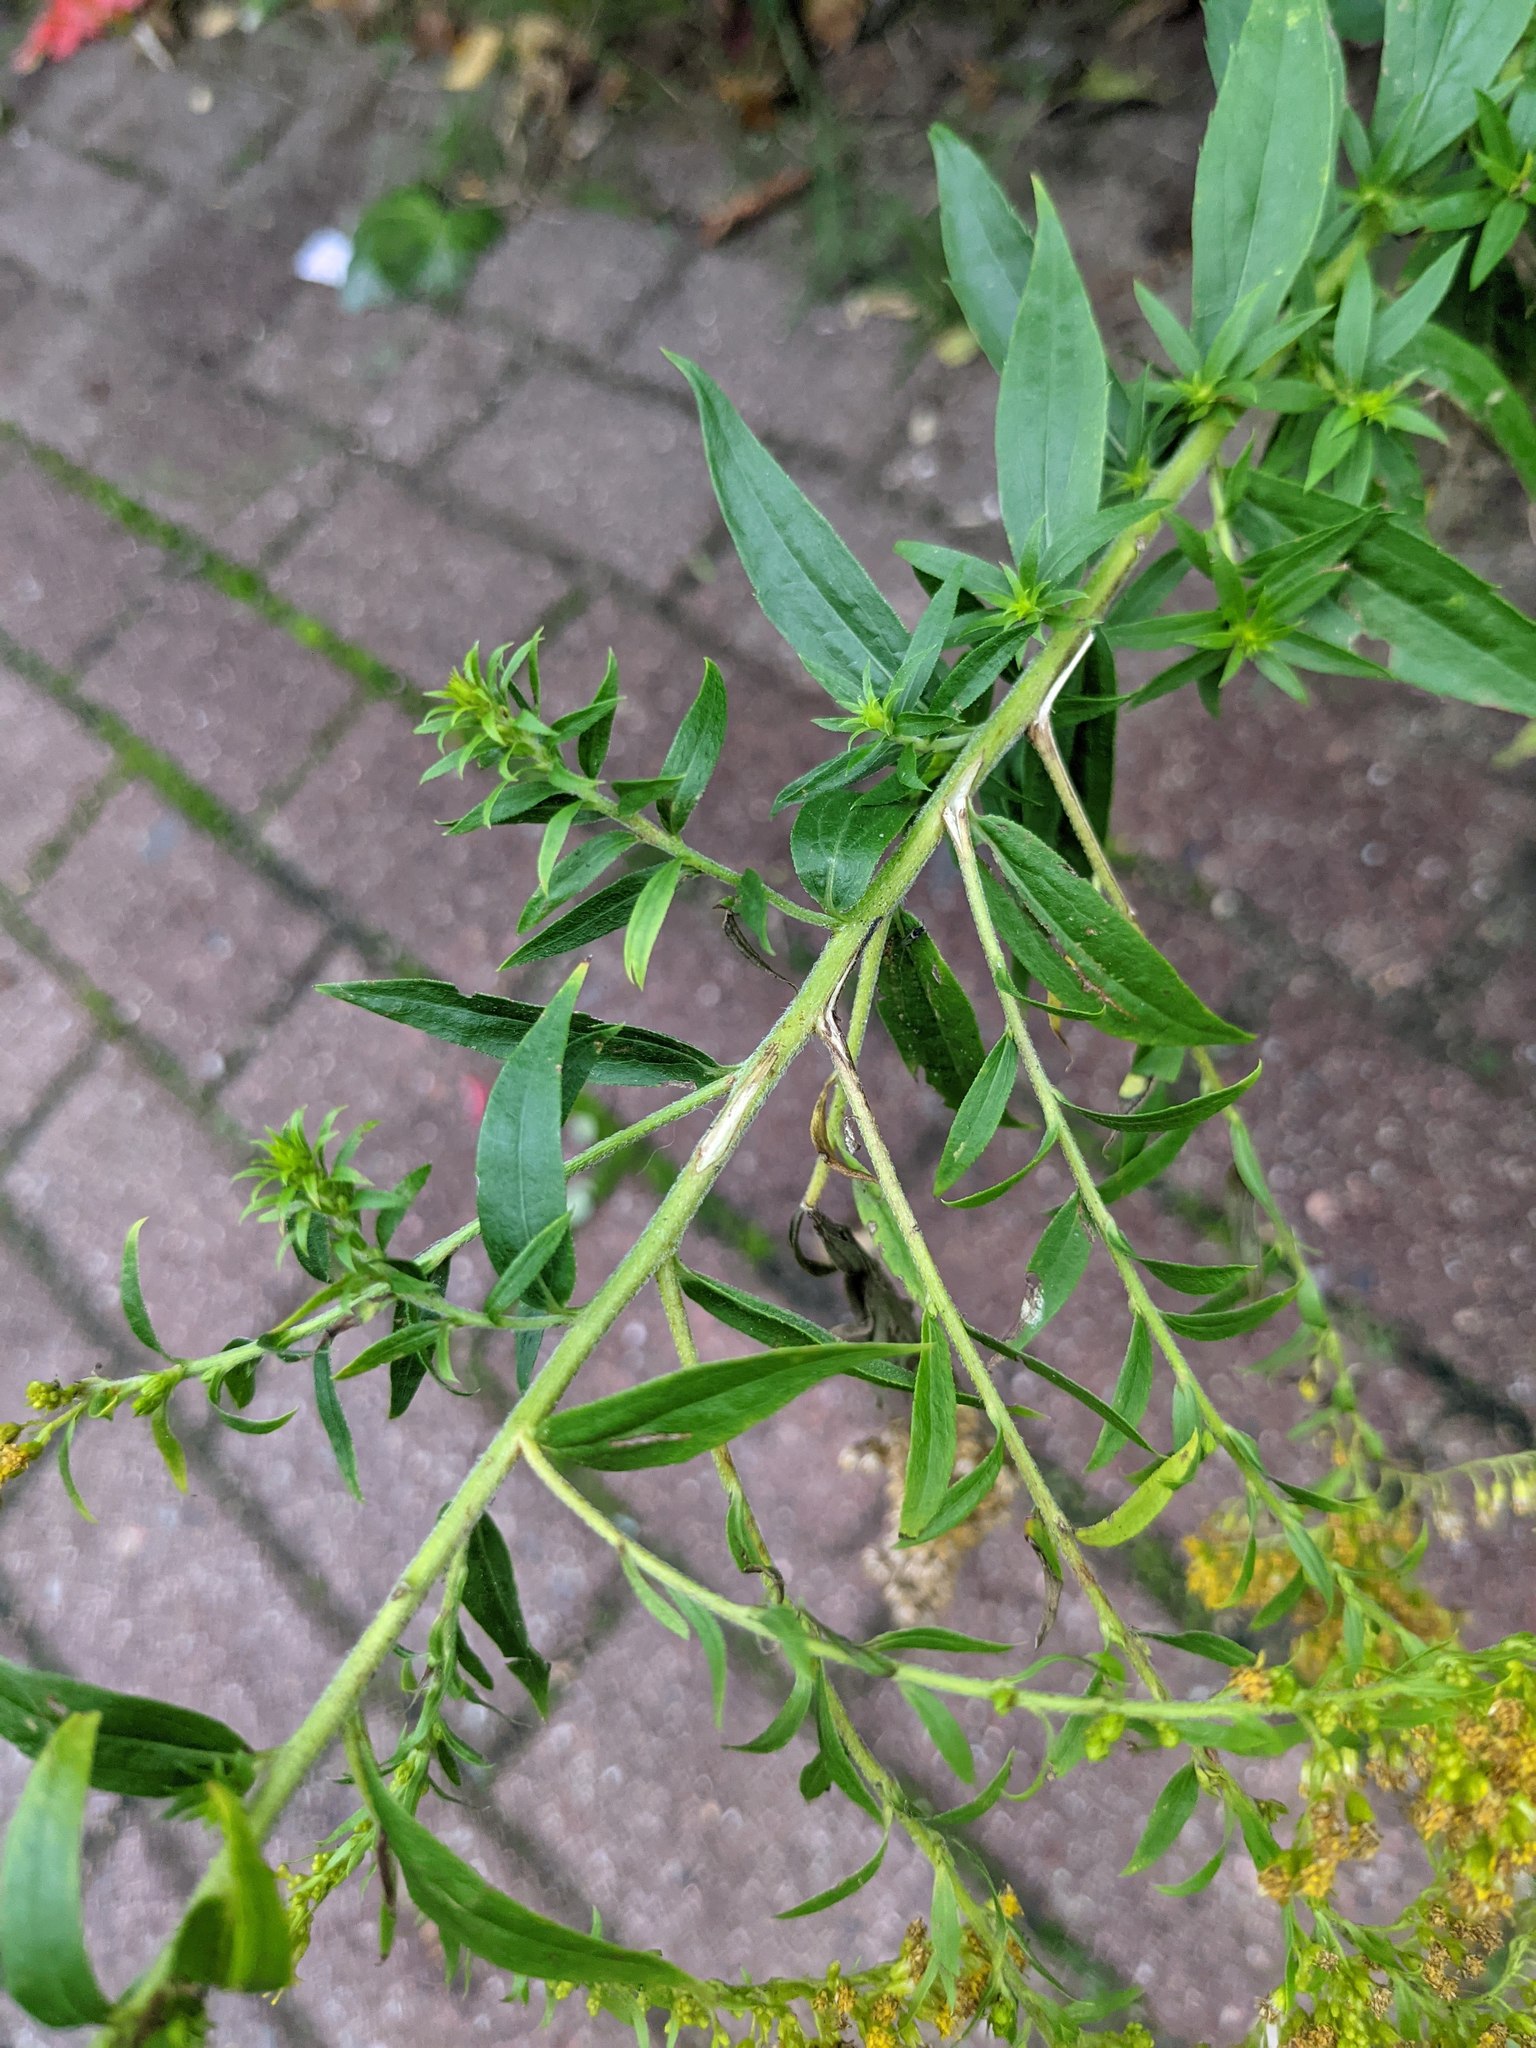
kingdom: Plantae
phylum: Tracheophyta
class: Magnoliopsida
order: Asterales
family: Asteraceae
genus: Solidago
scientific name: Solidago canadensis
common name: Canada goldenrod
